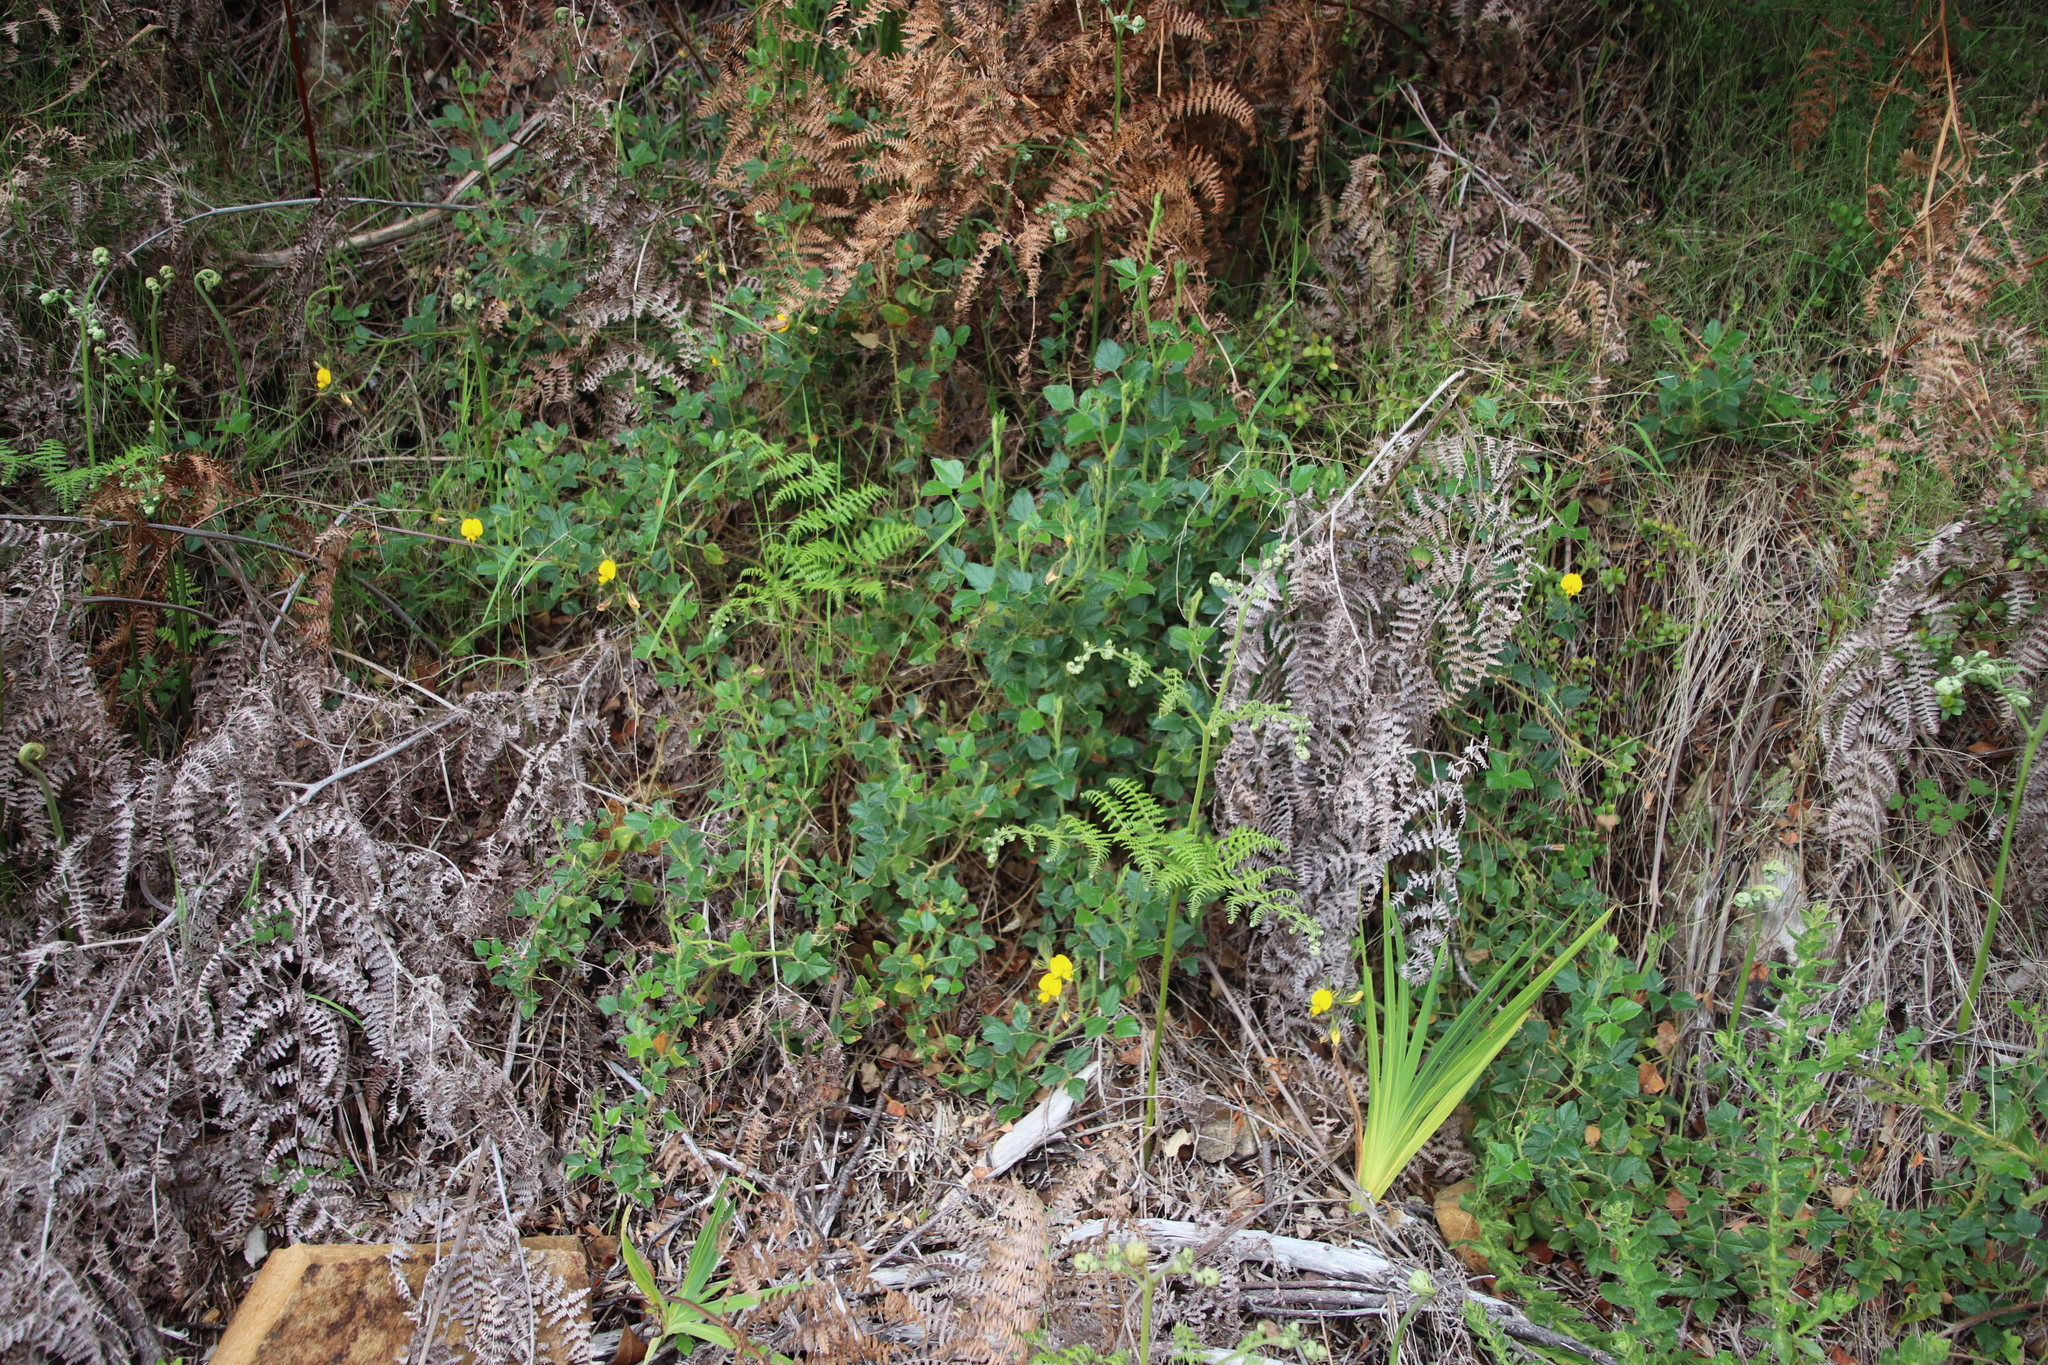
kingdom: Plantae
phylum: Tracheophyta
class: Magnoliopsida
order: Fabales
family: Fabaceae
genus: Bolusafra
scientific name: Bolusafra bituminosa
